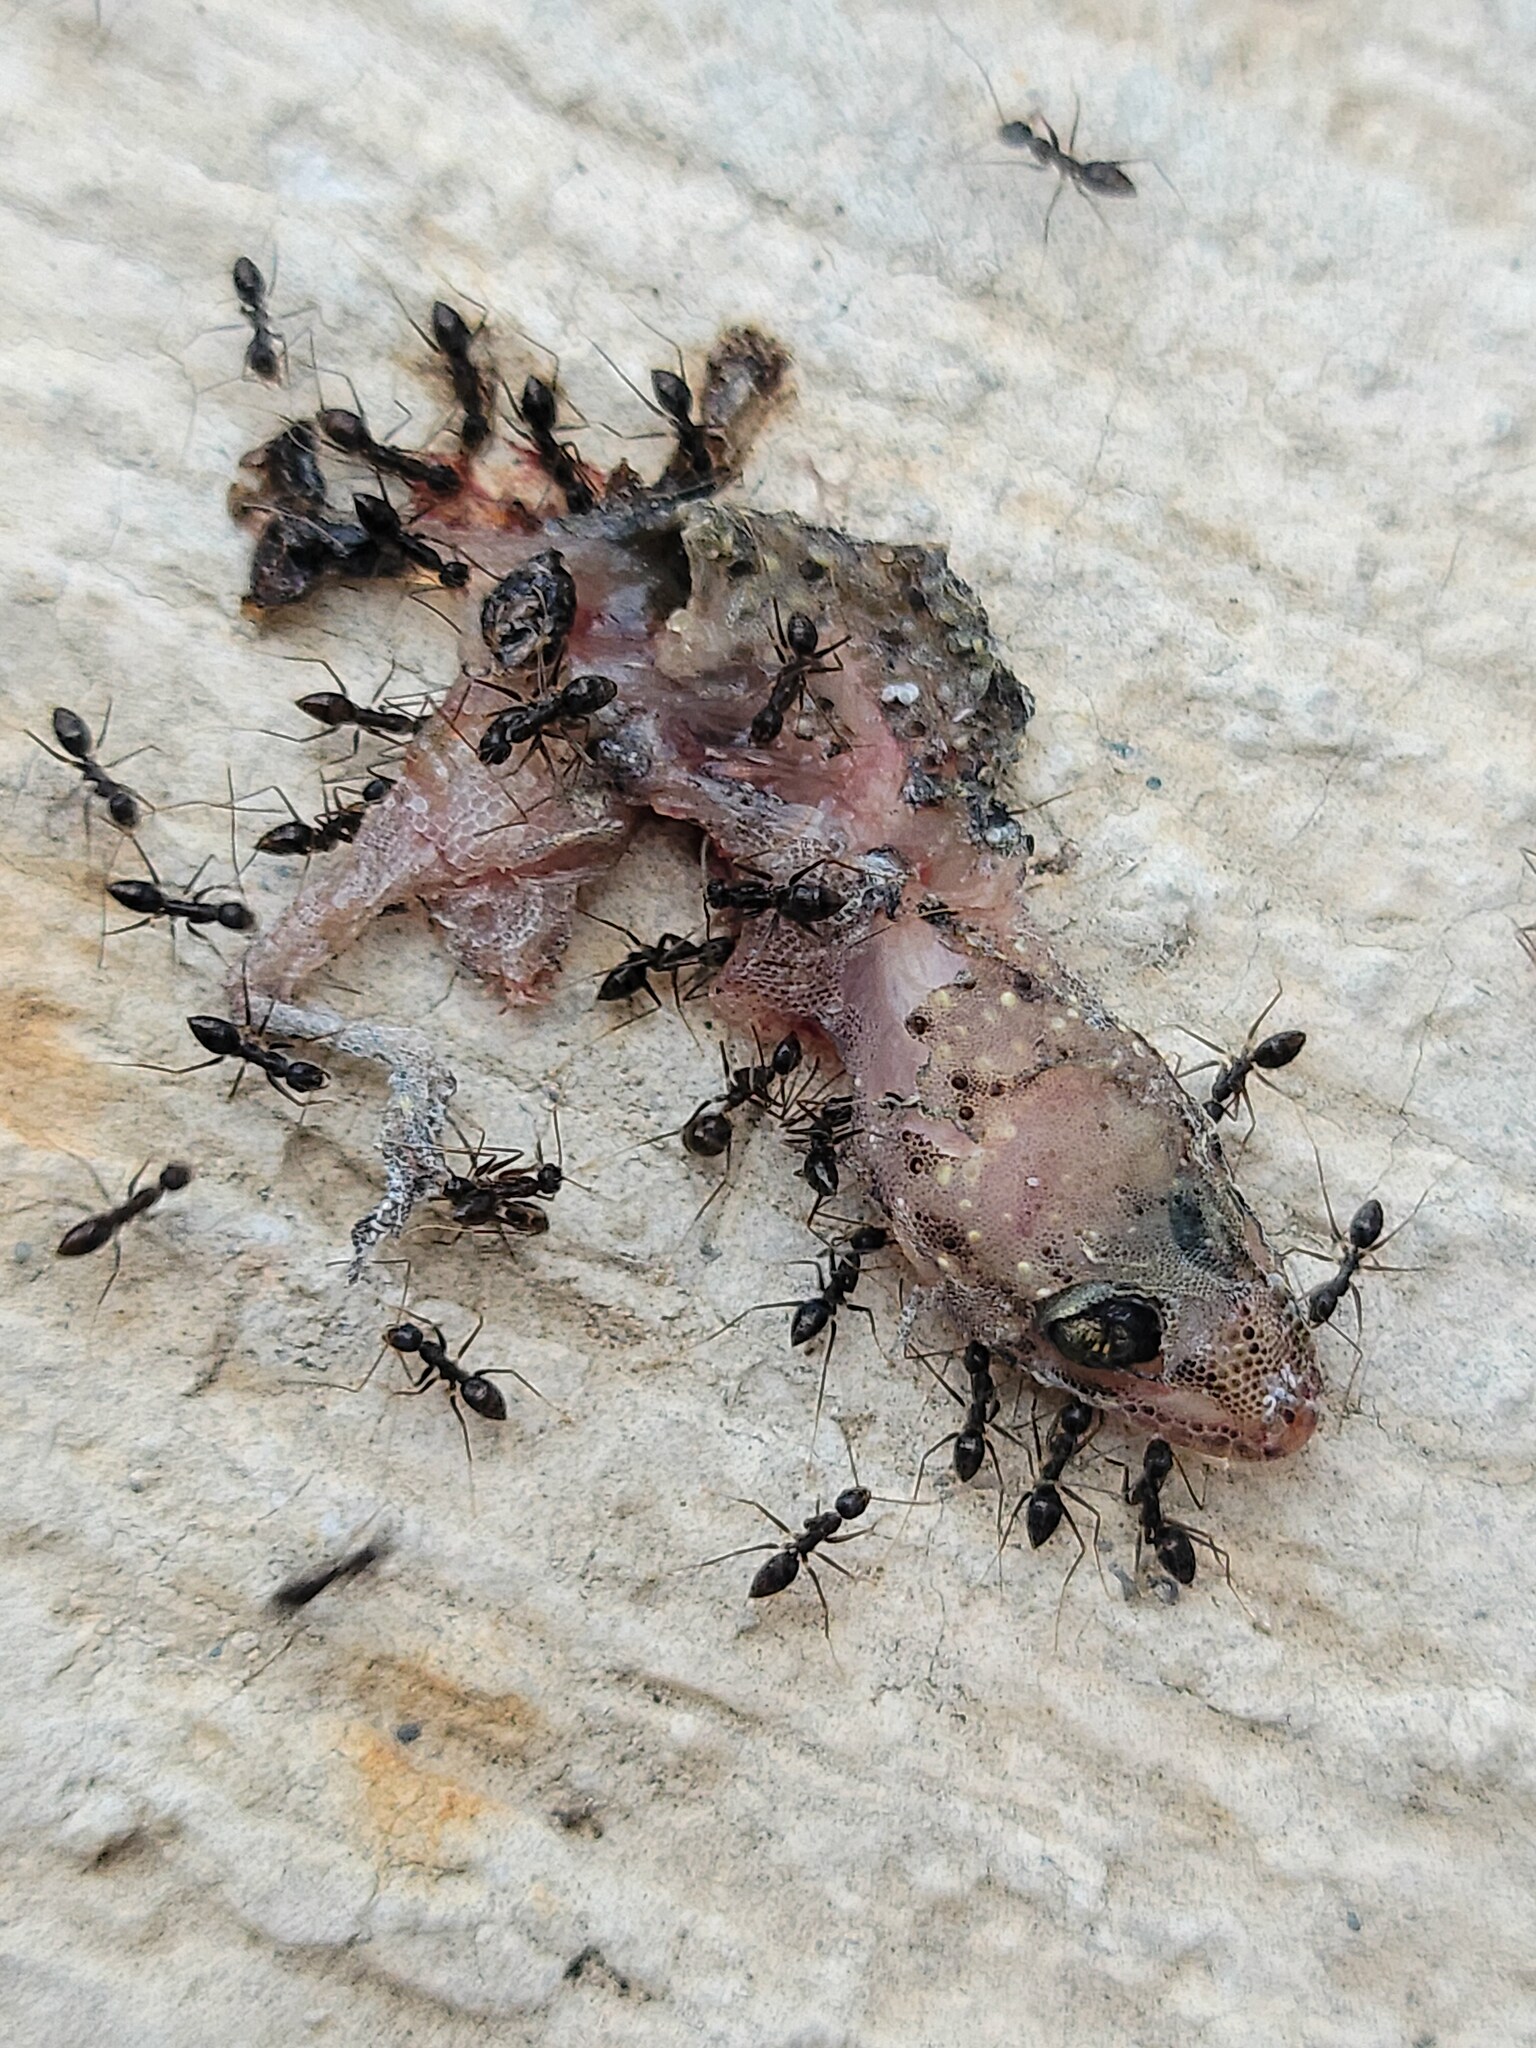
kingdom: Animalia
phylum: Arthropoda
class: Insecta
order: Hymenoptera
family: Formicidae
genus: Paratrechina
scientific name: Paratrechina longicornis
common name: Longhorned crazy ant
